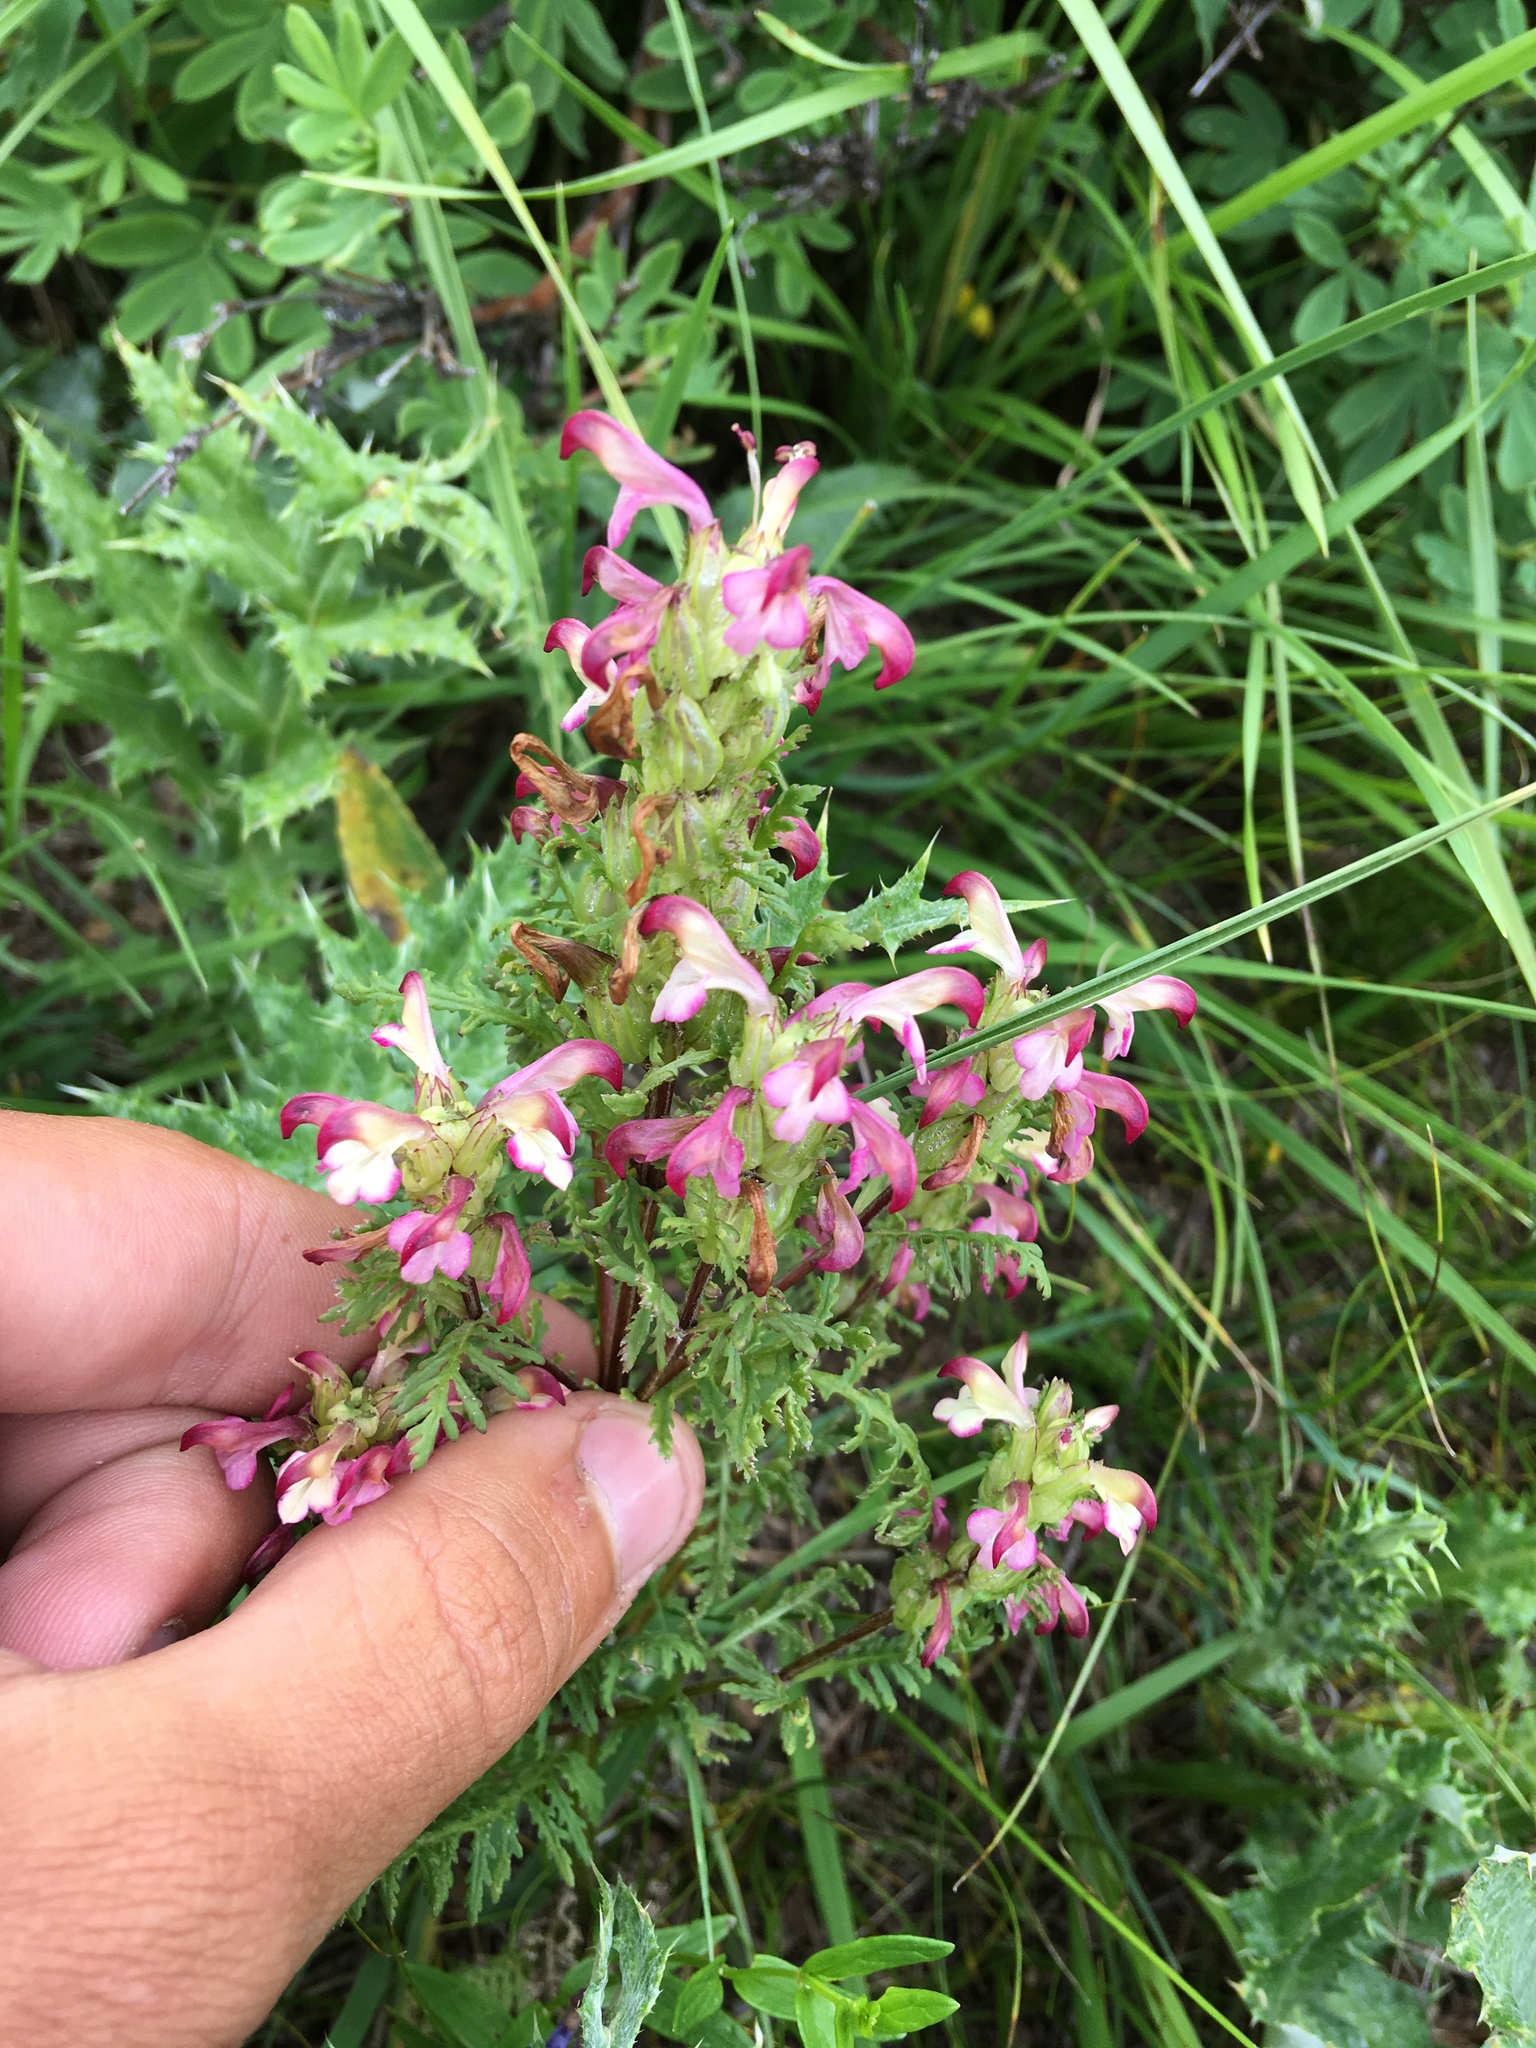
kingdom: Plantae
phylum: Tracheophyta
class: Magnoliopsida
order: Lamiales
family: Orobanchaceae
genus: Pedicularis
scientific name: Pedicularis myriophylla
